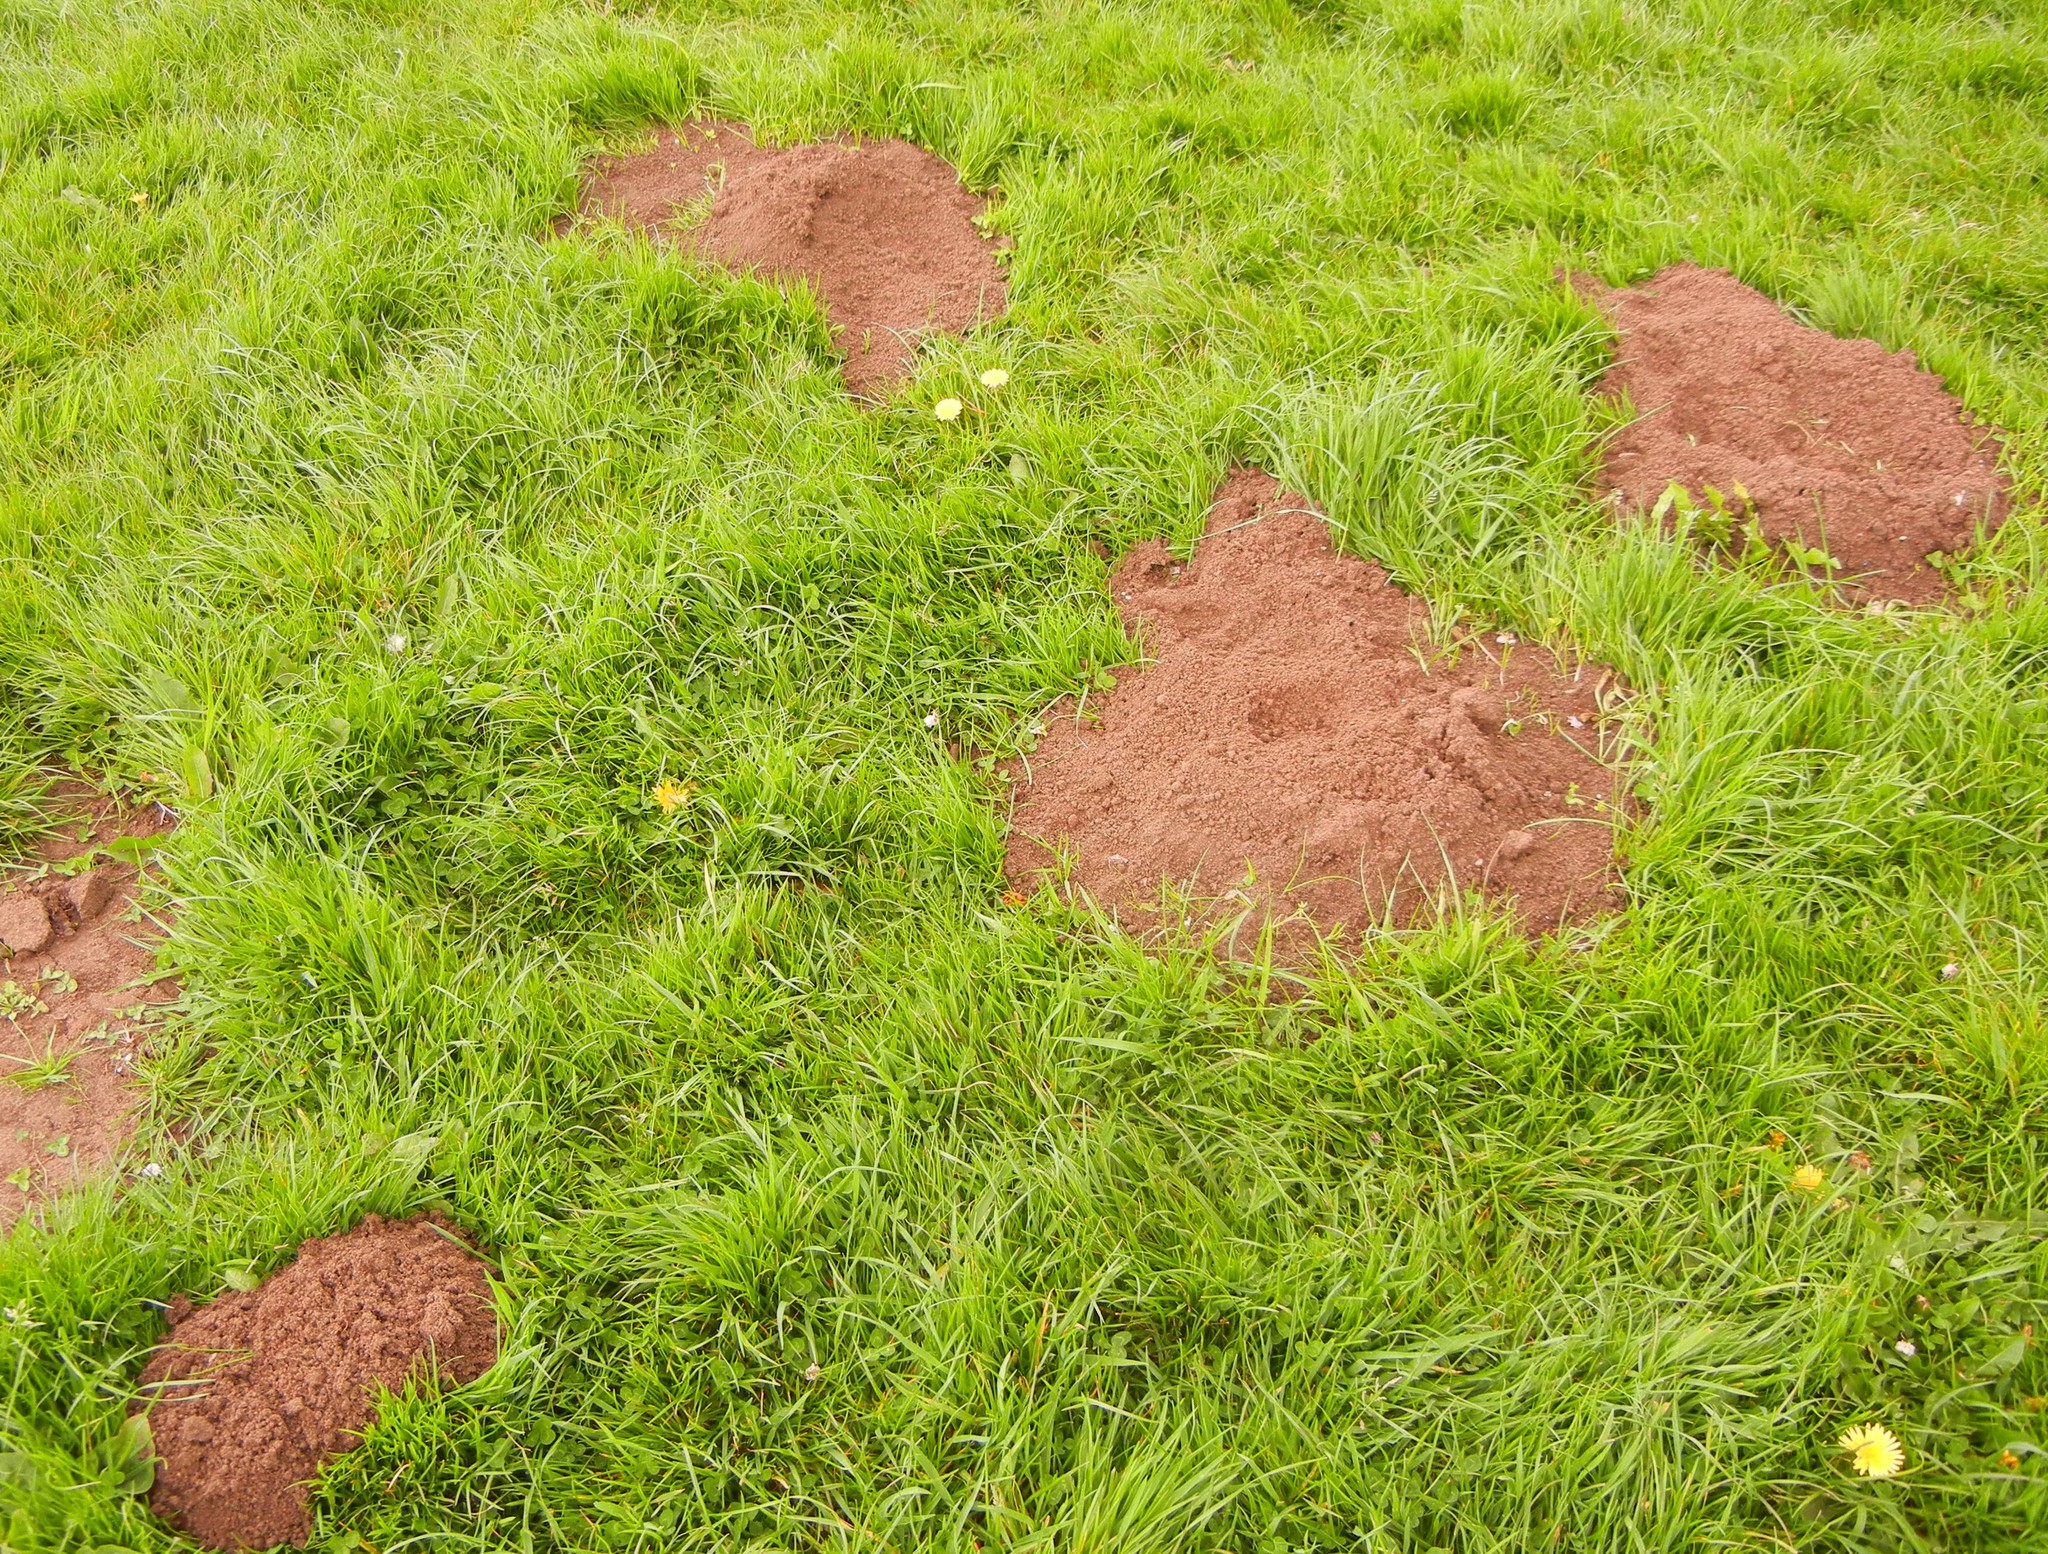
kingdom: Animalia
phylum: Chordata
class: Mammalia
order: Soricomorpha
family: Talpidae
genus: Talpa
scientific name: Talpa europaea
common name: European mole
